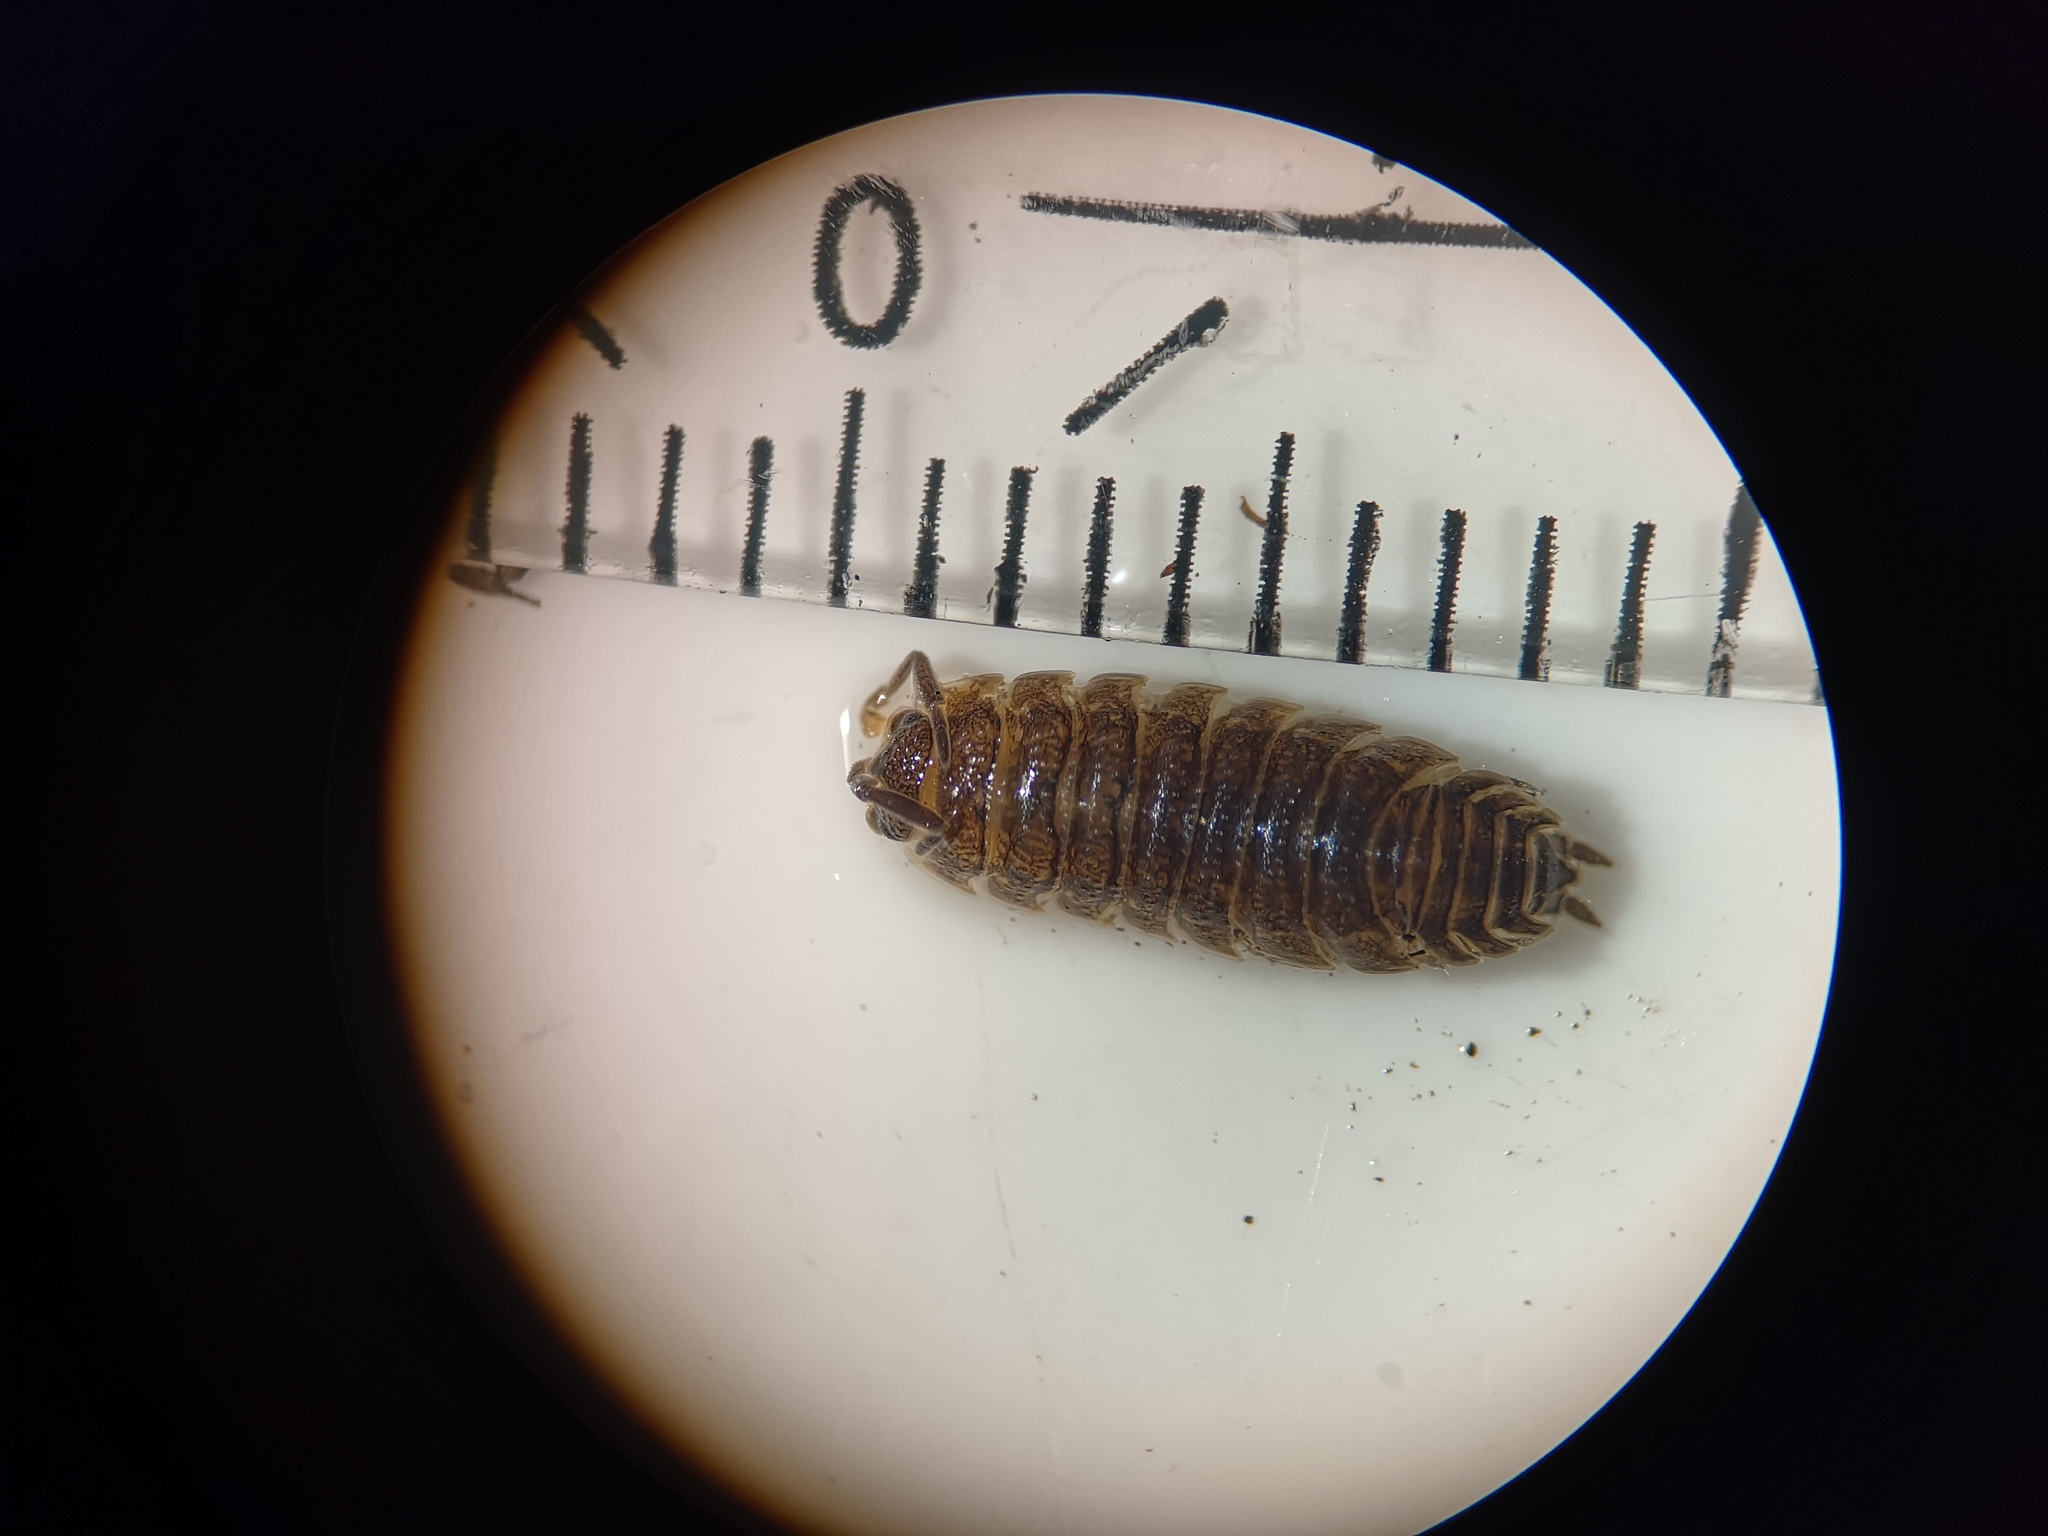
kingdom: Animalia
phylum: Arthropoda
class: Malacostraca
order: Isopoda
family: Porcellionidae
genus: Porcellio
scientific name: Porcellio scaber
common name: Common rough woodlouse
